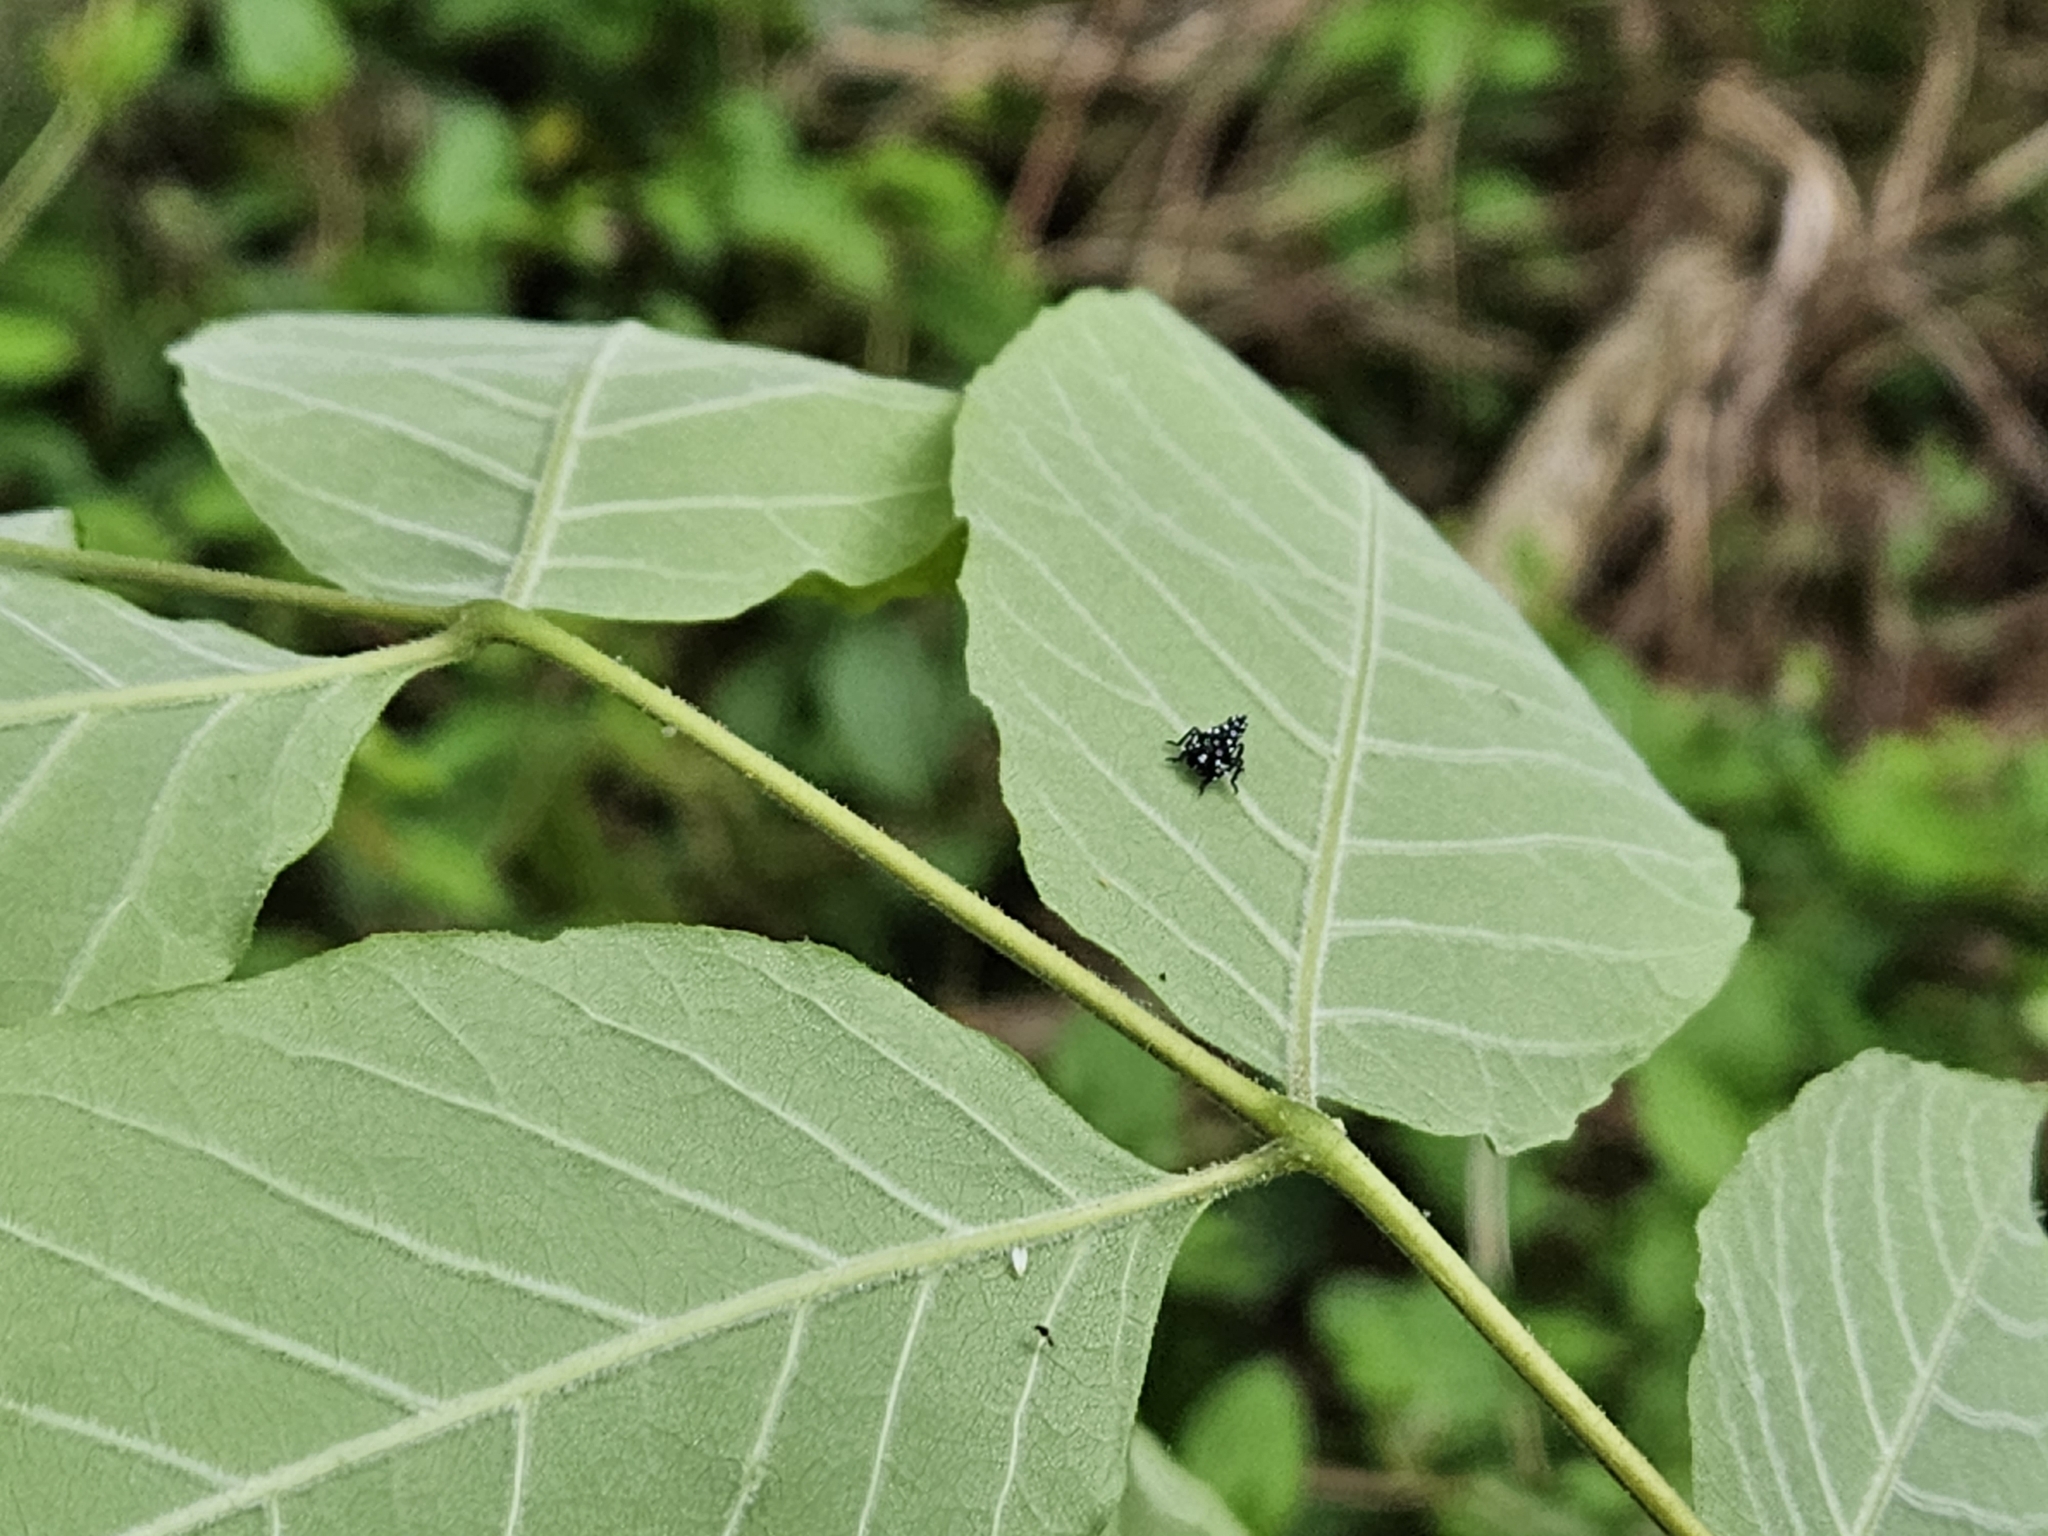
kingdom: Animalia
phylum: Arthropoda
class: Insecta
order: Hemiptera
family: Fulgoridae
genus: Lycorma
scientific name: Lycorma delicatula
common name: Spotted lanternfly
